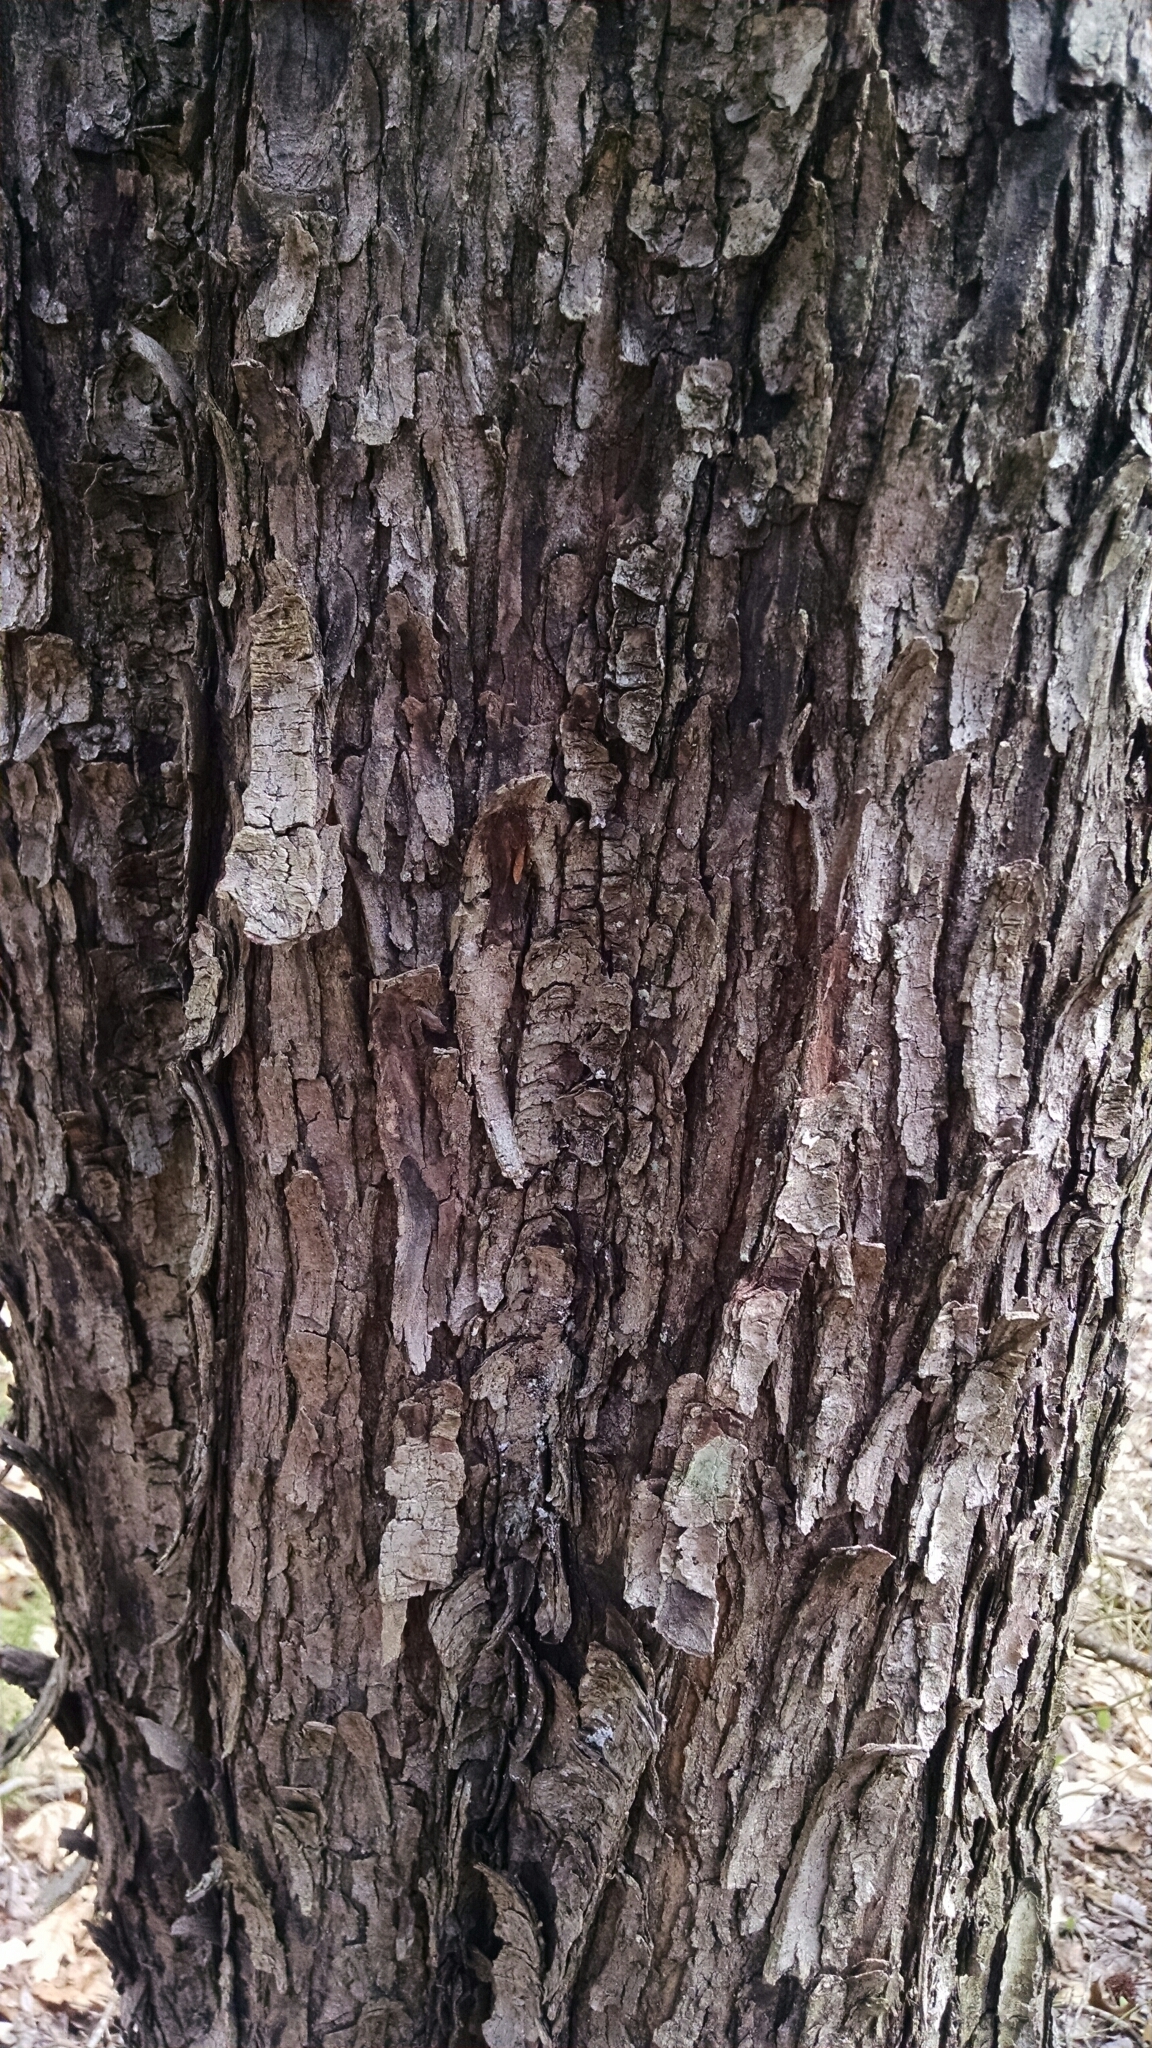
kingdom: Plantae
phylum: Tracheophyta
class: Magnoliopsida
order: Fagales
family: Betulaceae
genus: Ostrya
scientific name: Ostrya virginiana
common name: Ironwood
